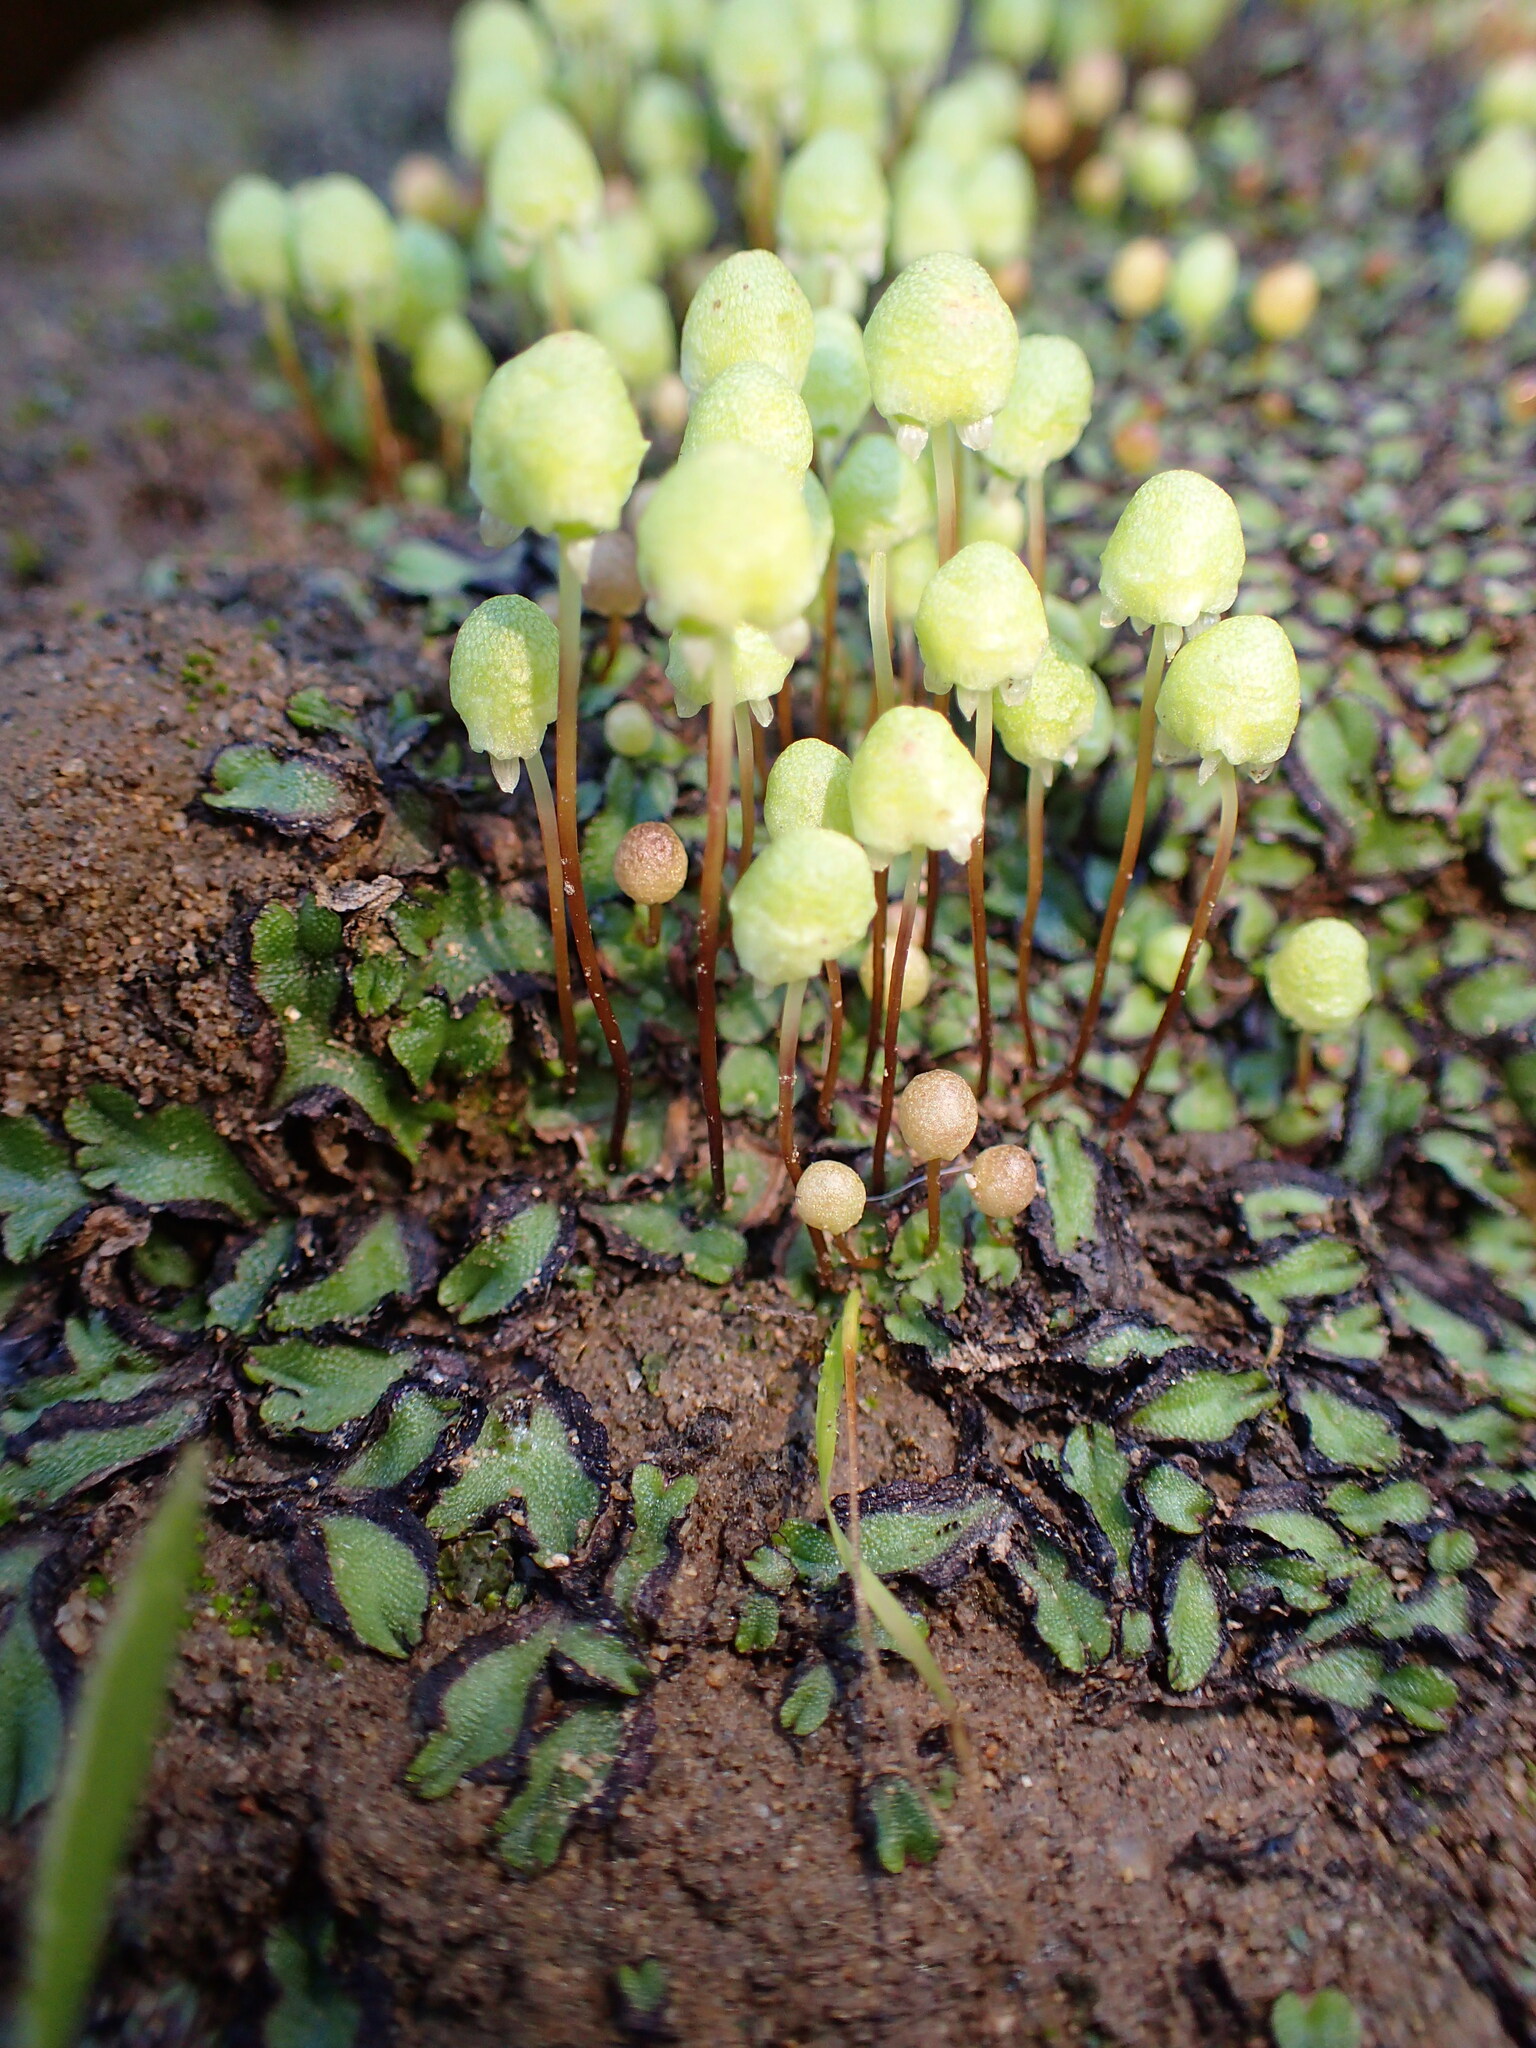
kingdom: Plantae
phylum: Marchantiophyta
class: Marchantiopsida
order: Marchantiales
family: Aytoniaceae
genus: Asterella
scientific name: Asterella palmeri
